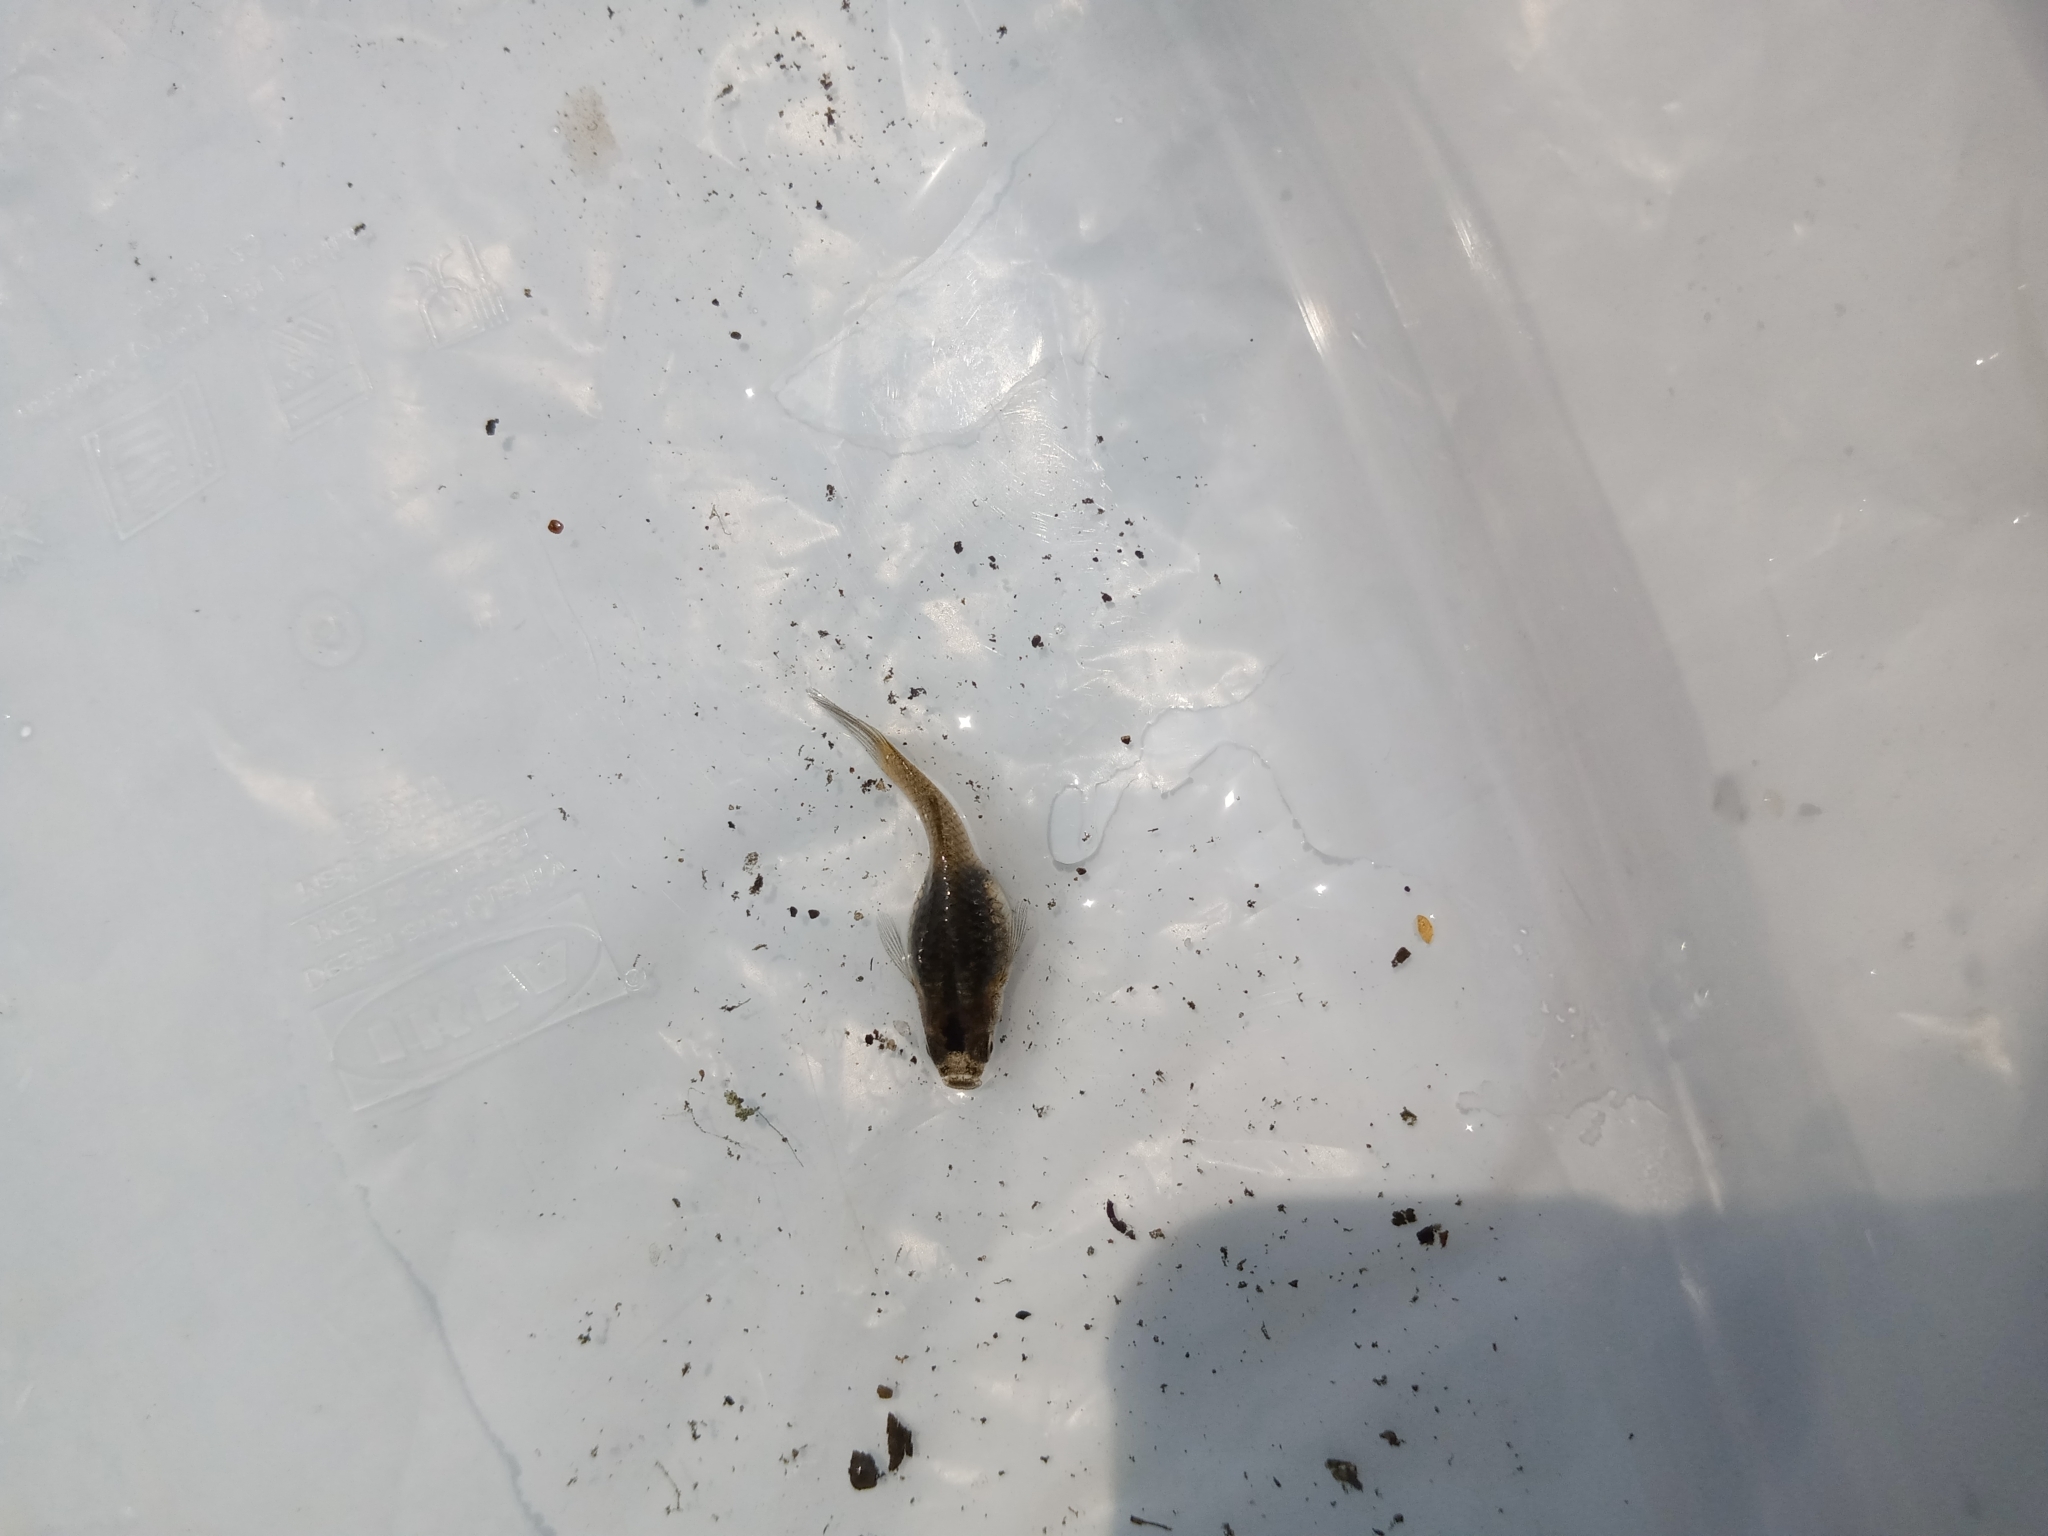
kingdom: Animalia
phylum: Chordata
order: Cyprinodontiformes
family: Poeciliidae
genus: Poecilia
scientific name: Poecilia reticulata
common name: Guppy
